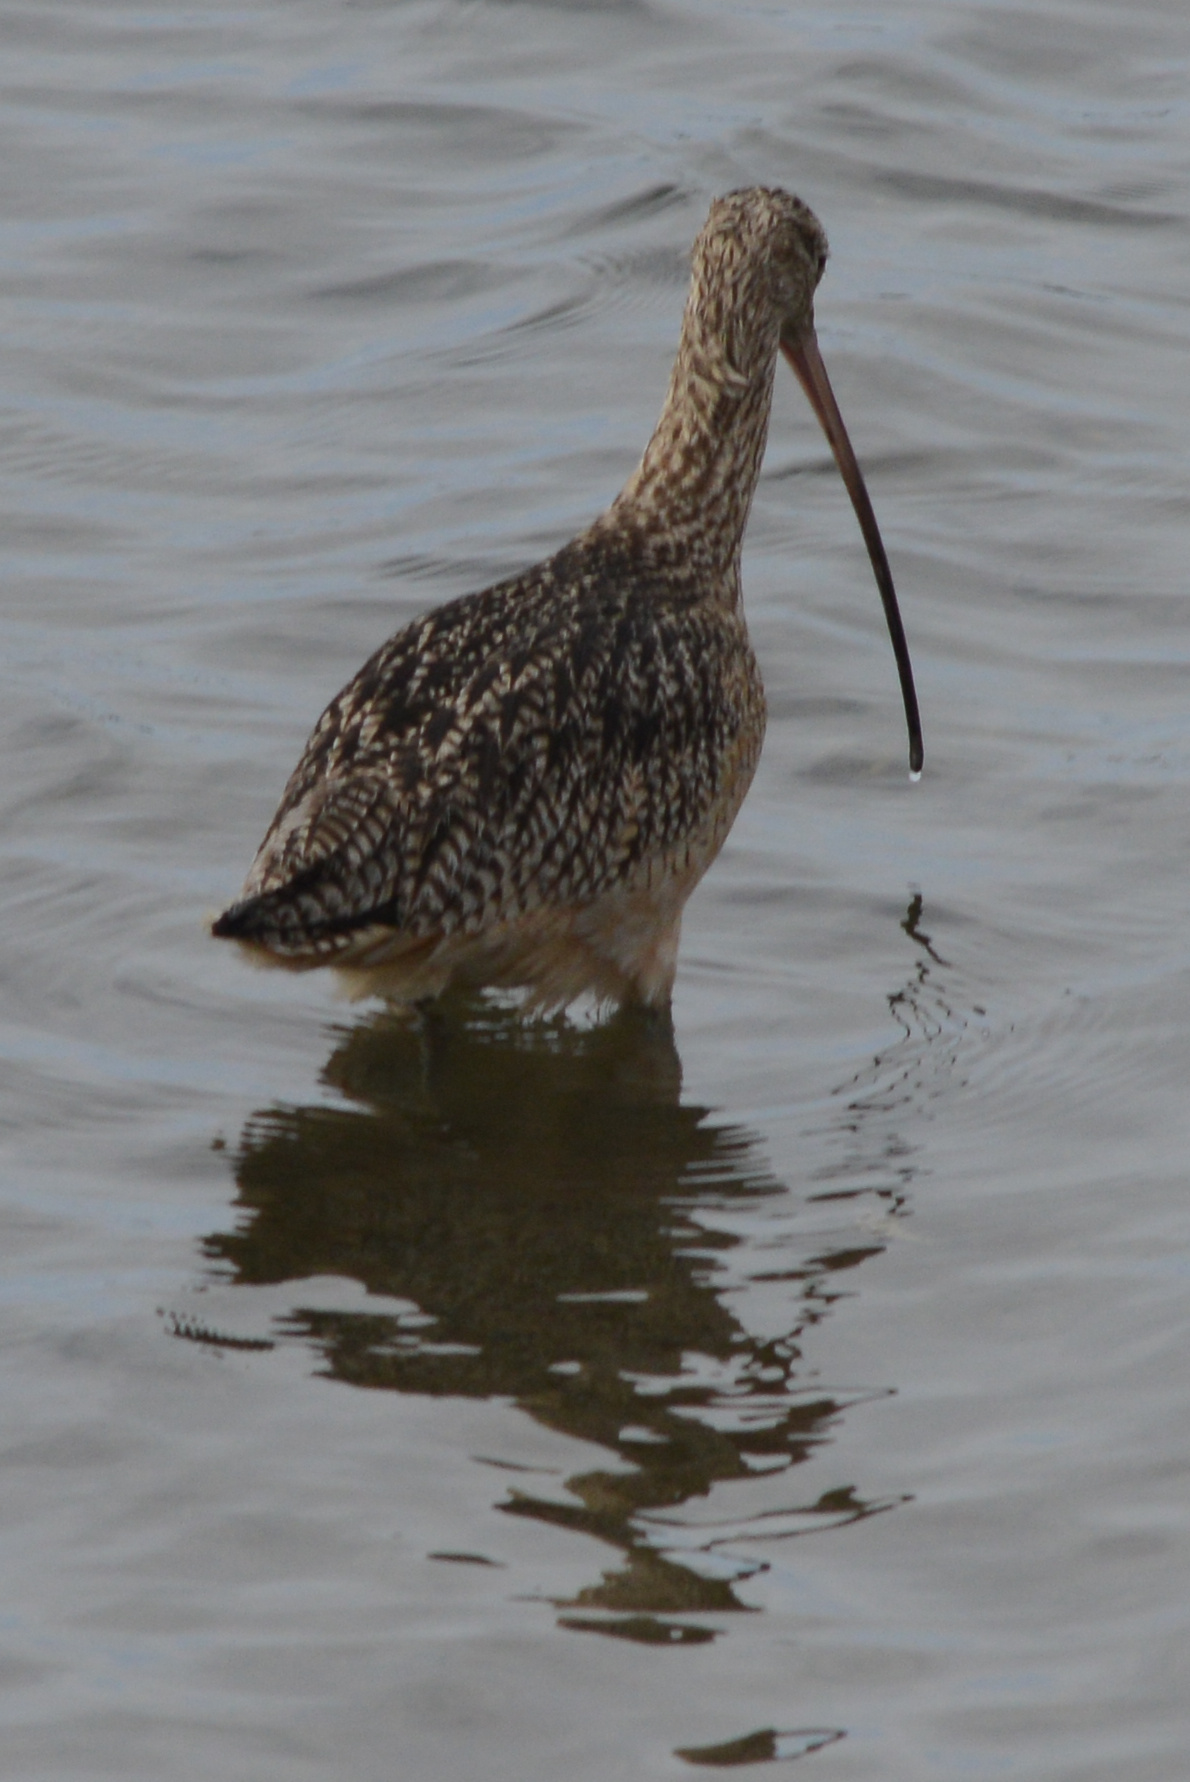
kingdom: Animalia
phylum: Chordata
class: Aves
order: Charadriiformes
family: Scolopacidae
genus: Numenius
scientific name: Numenius americanus
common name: Long-billed curlew
